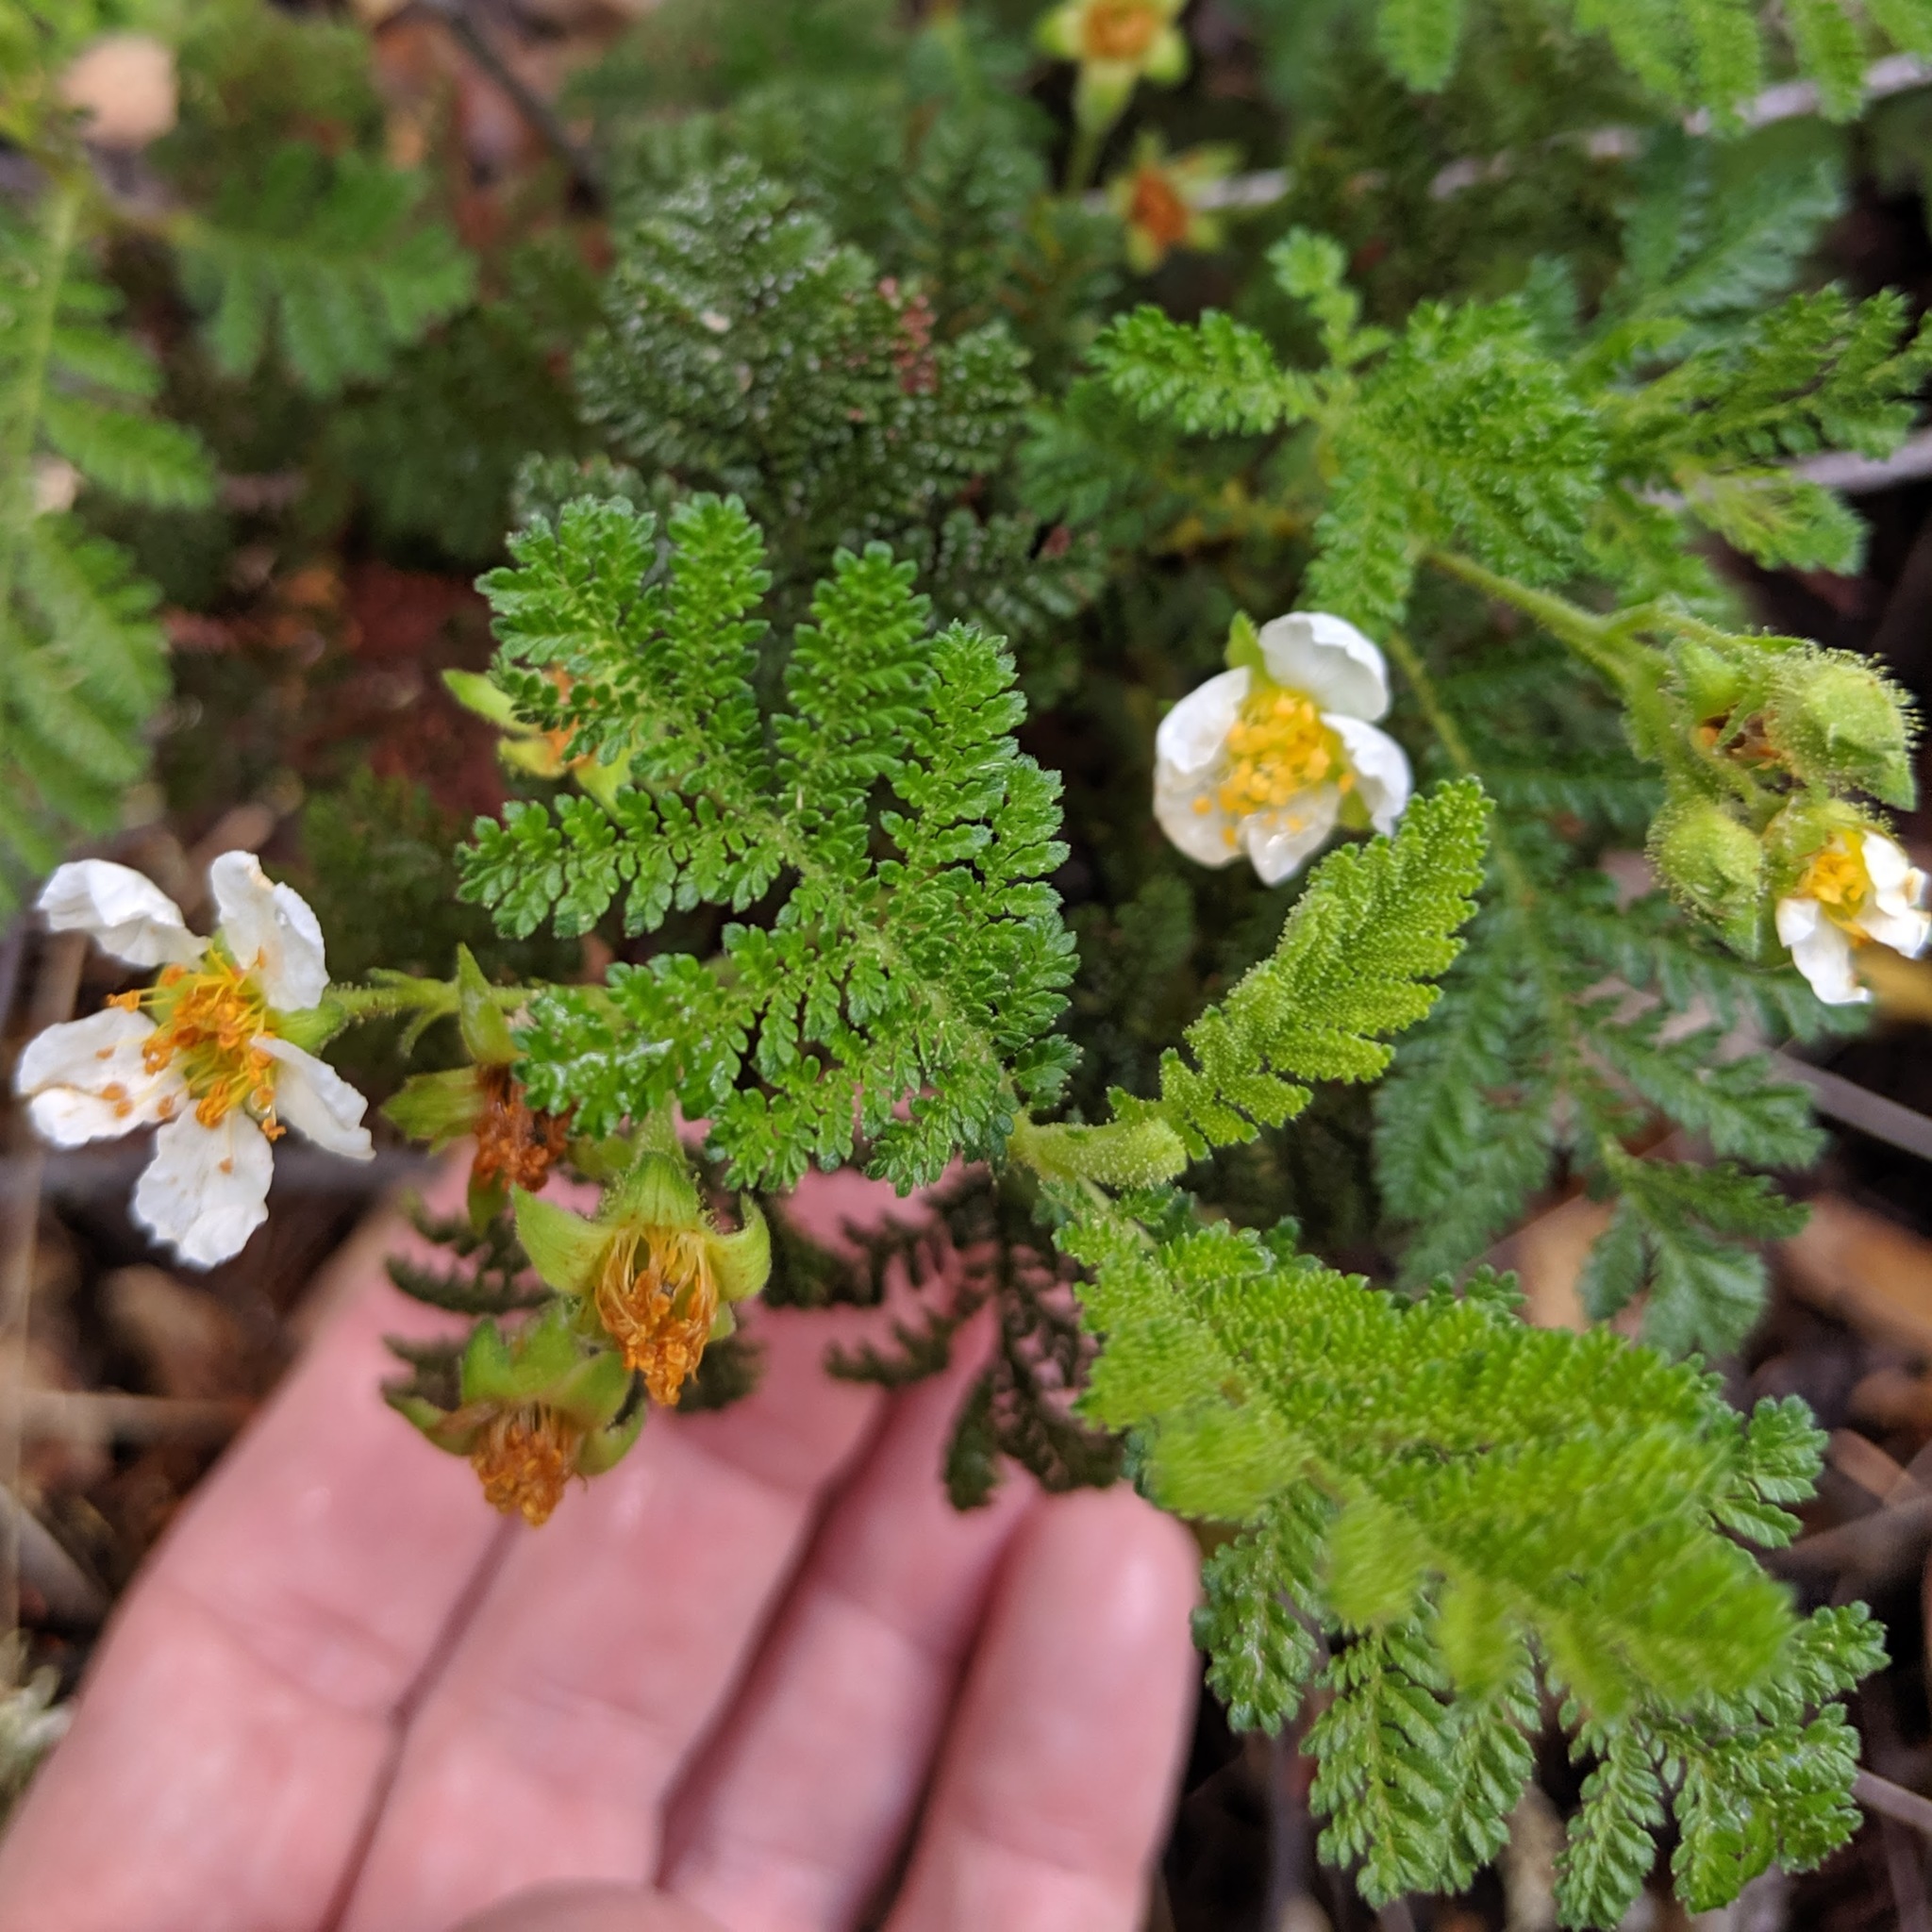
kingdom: Plantae
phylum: Tracheophyta
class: Magnoliopsida
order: Rosales
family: Rosaceae
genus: Chamaebatia
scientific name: Chamaebatia foliolosa
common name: Mountain misery
